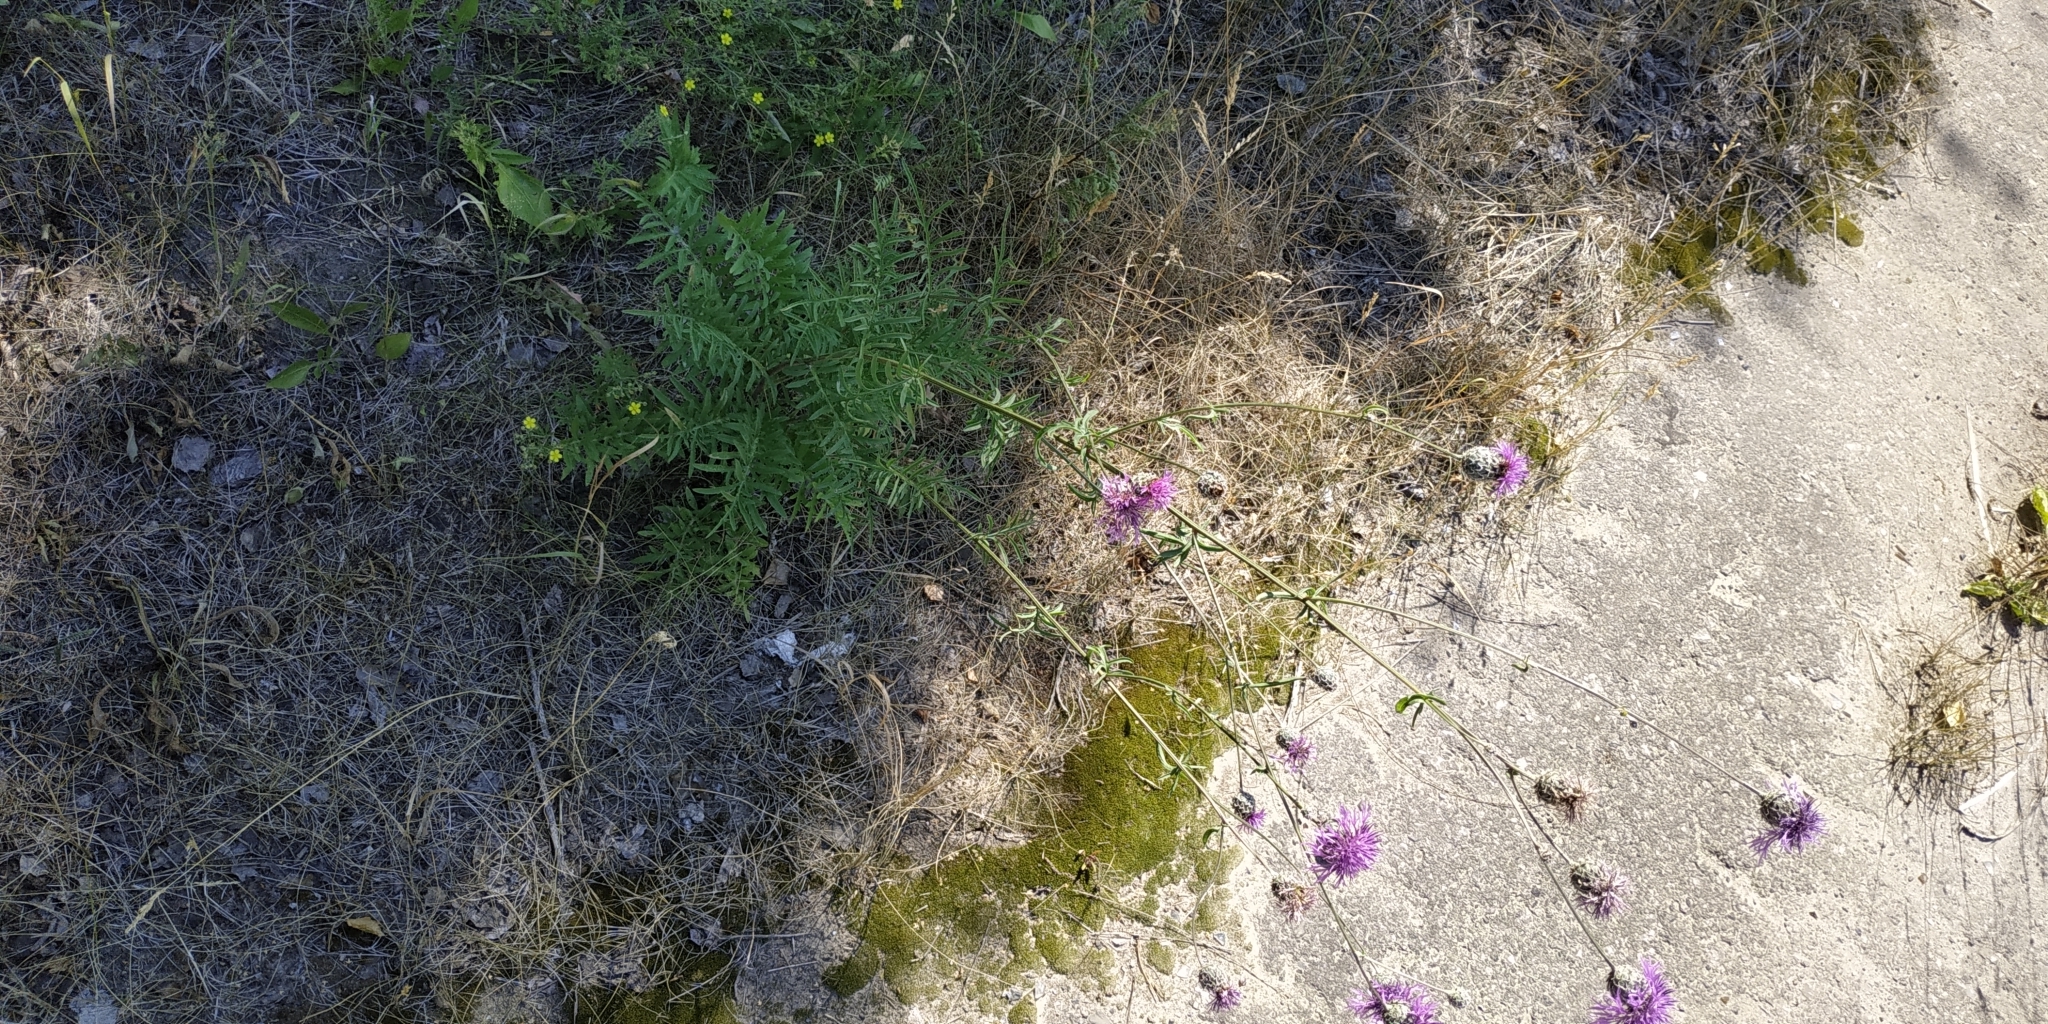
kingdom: Plantae
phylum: Tracheophyta
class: Magnoliopsida
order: Asterales
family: Asteraceae
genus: Centaurea
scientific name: Centaurea scabiosa
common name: Greater knapweed
